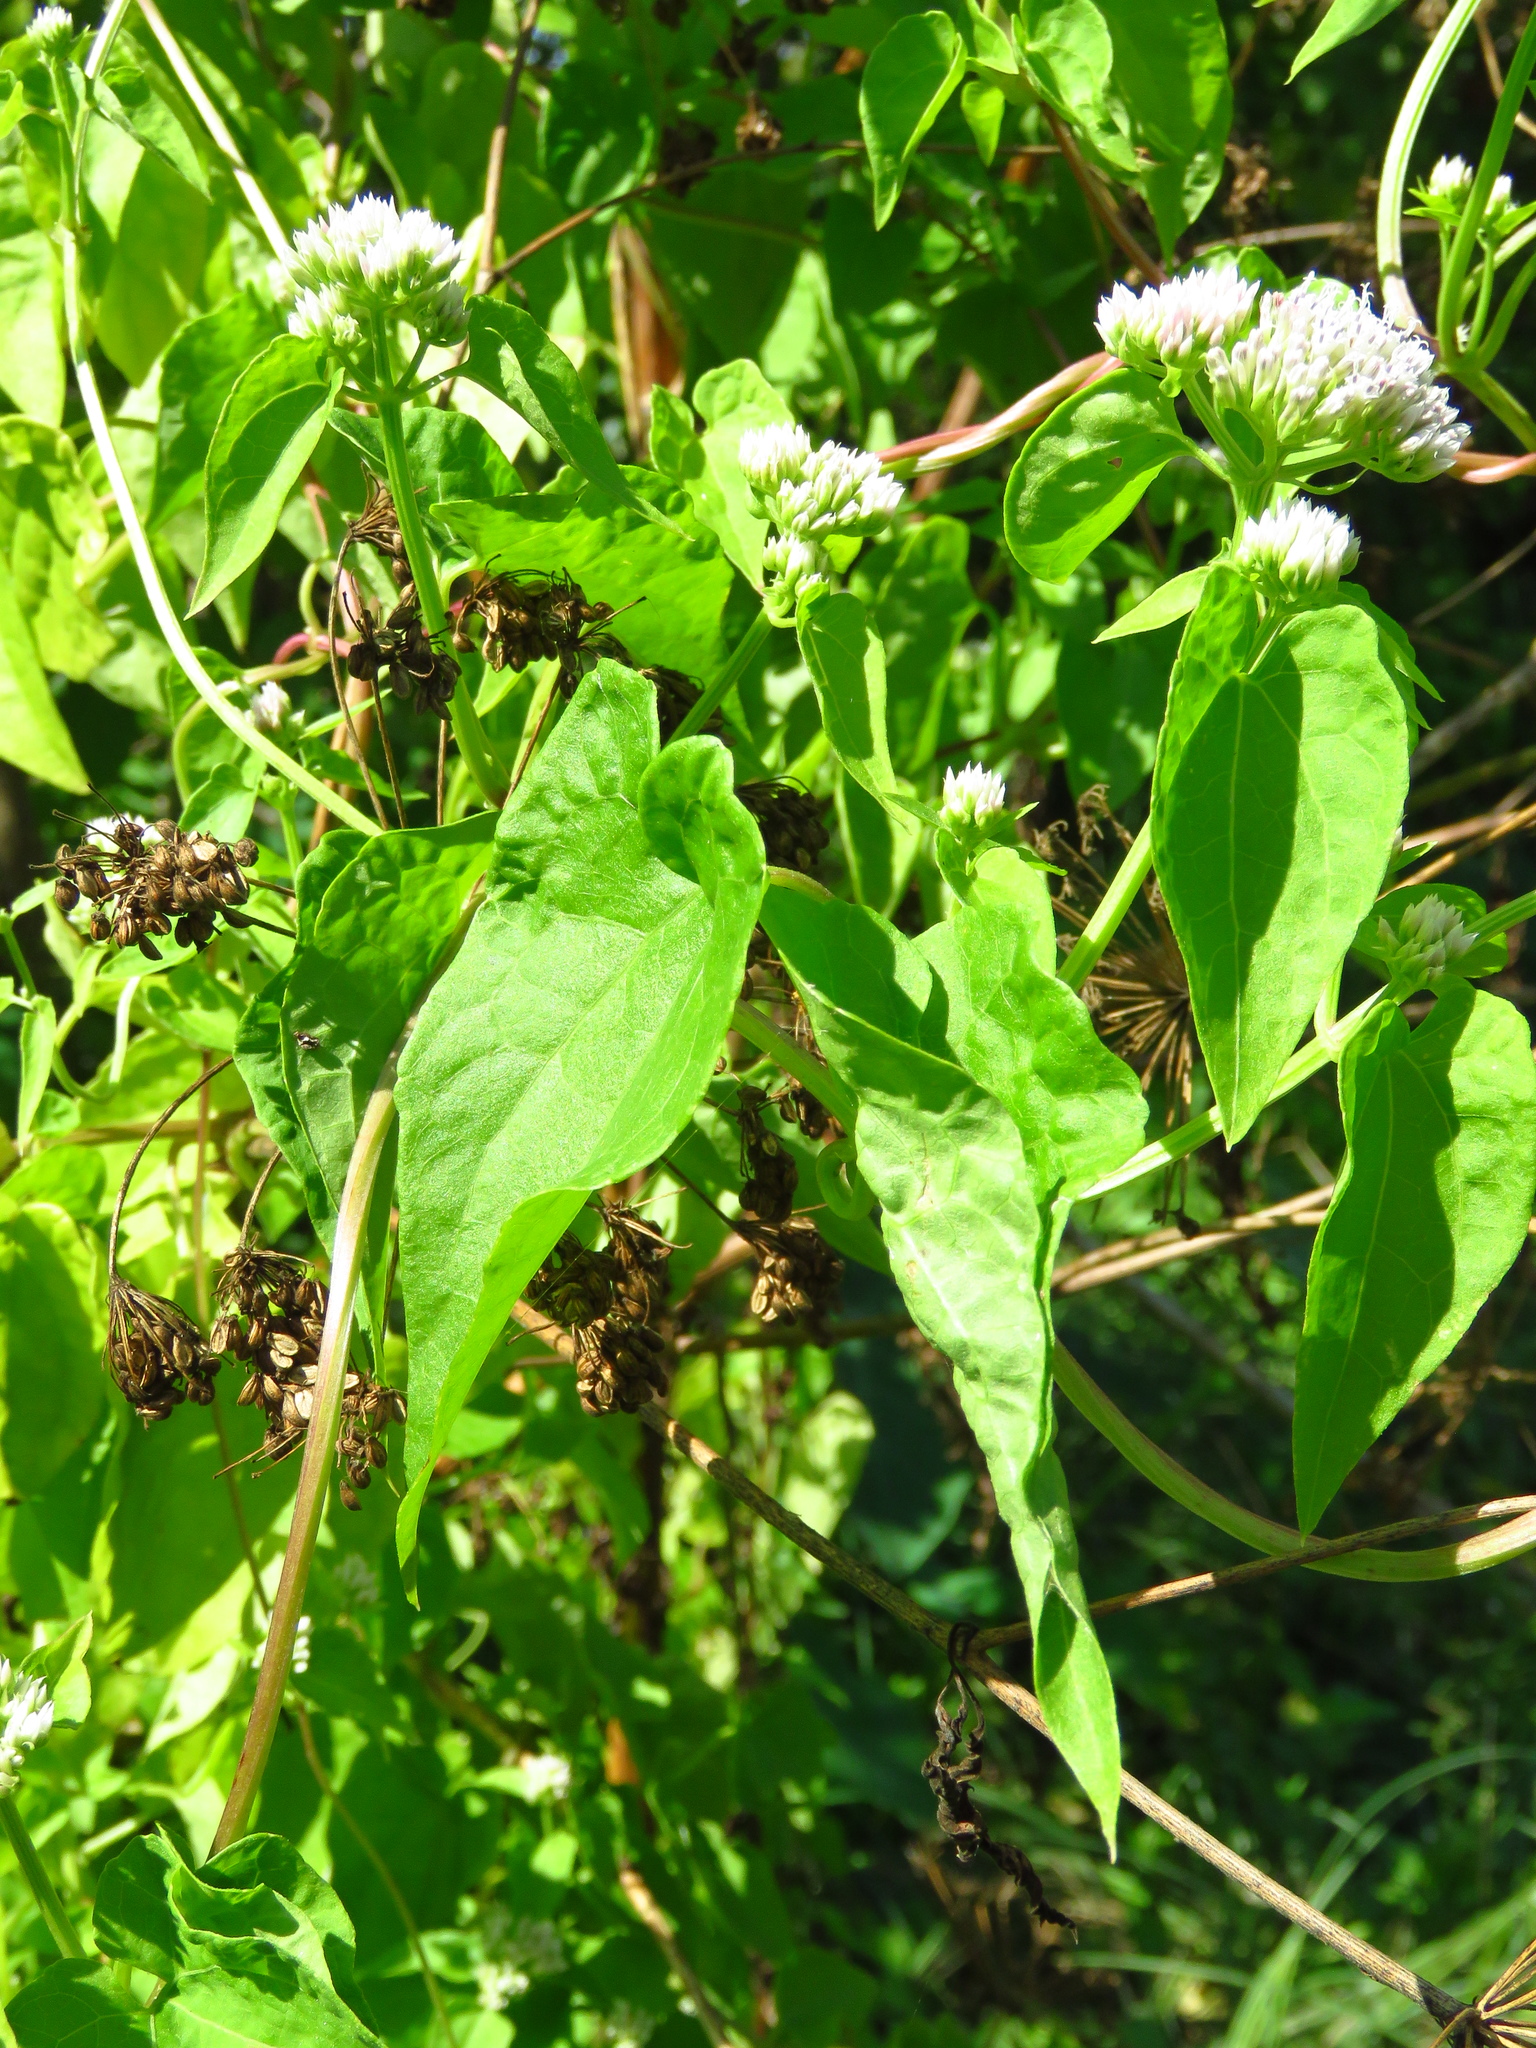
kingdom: Plantae
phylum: Tracheophyta
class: Magnoliopsida
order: Asterales
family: Asteraceae
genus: Mikania
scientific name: Mikania scandens
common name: Climbing hempvine
